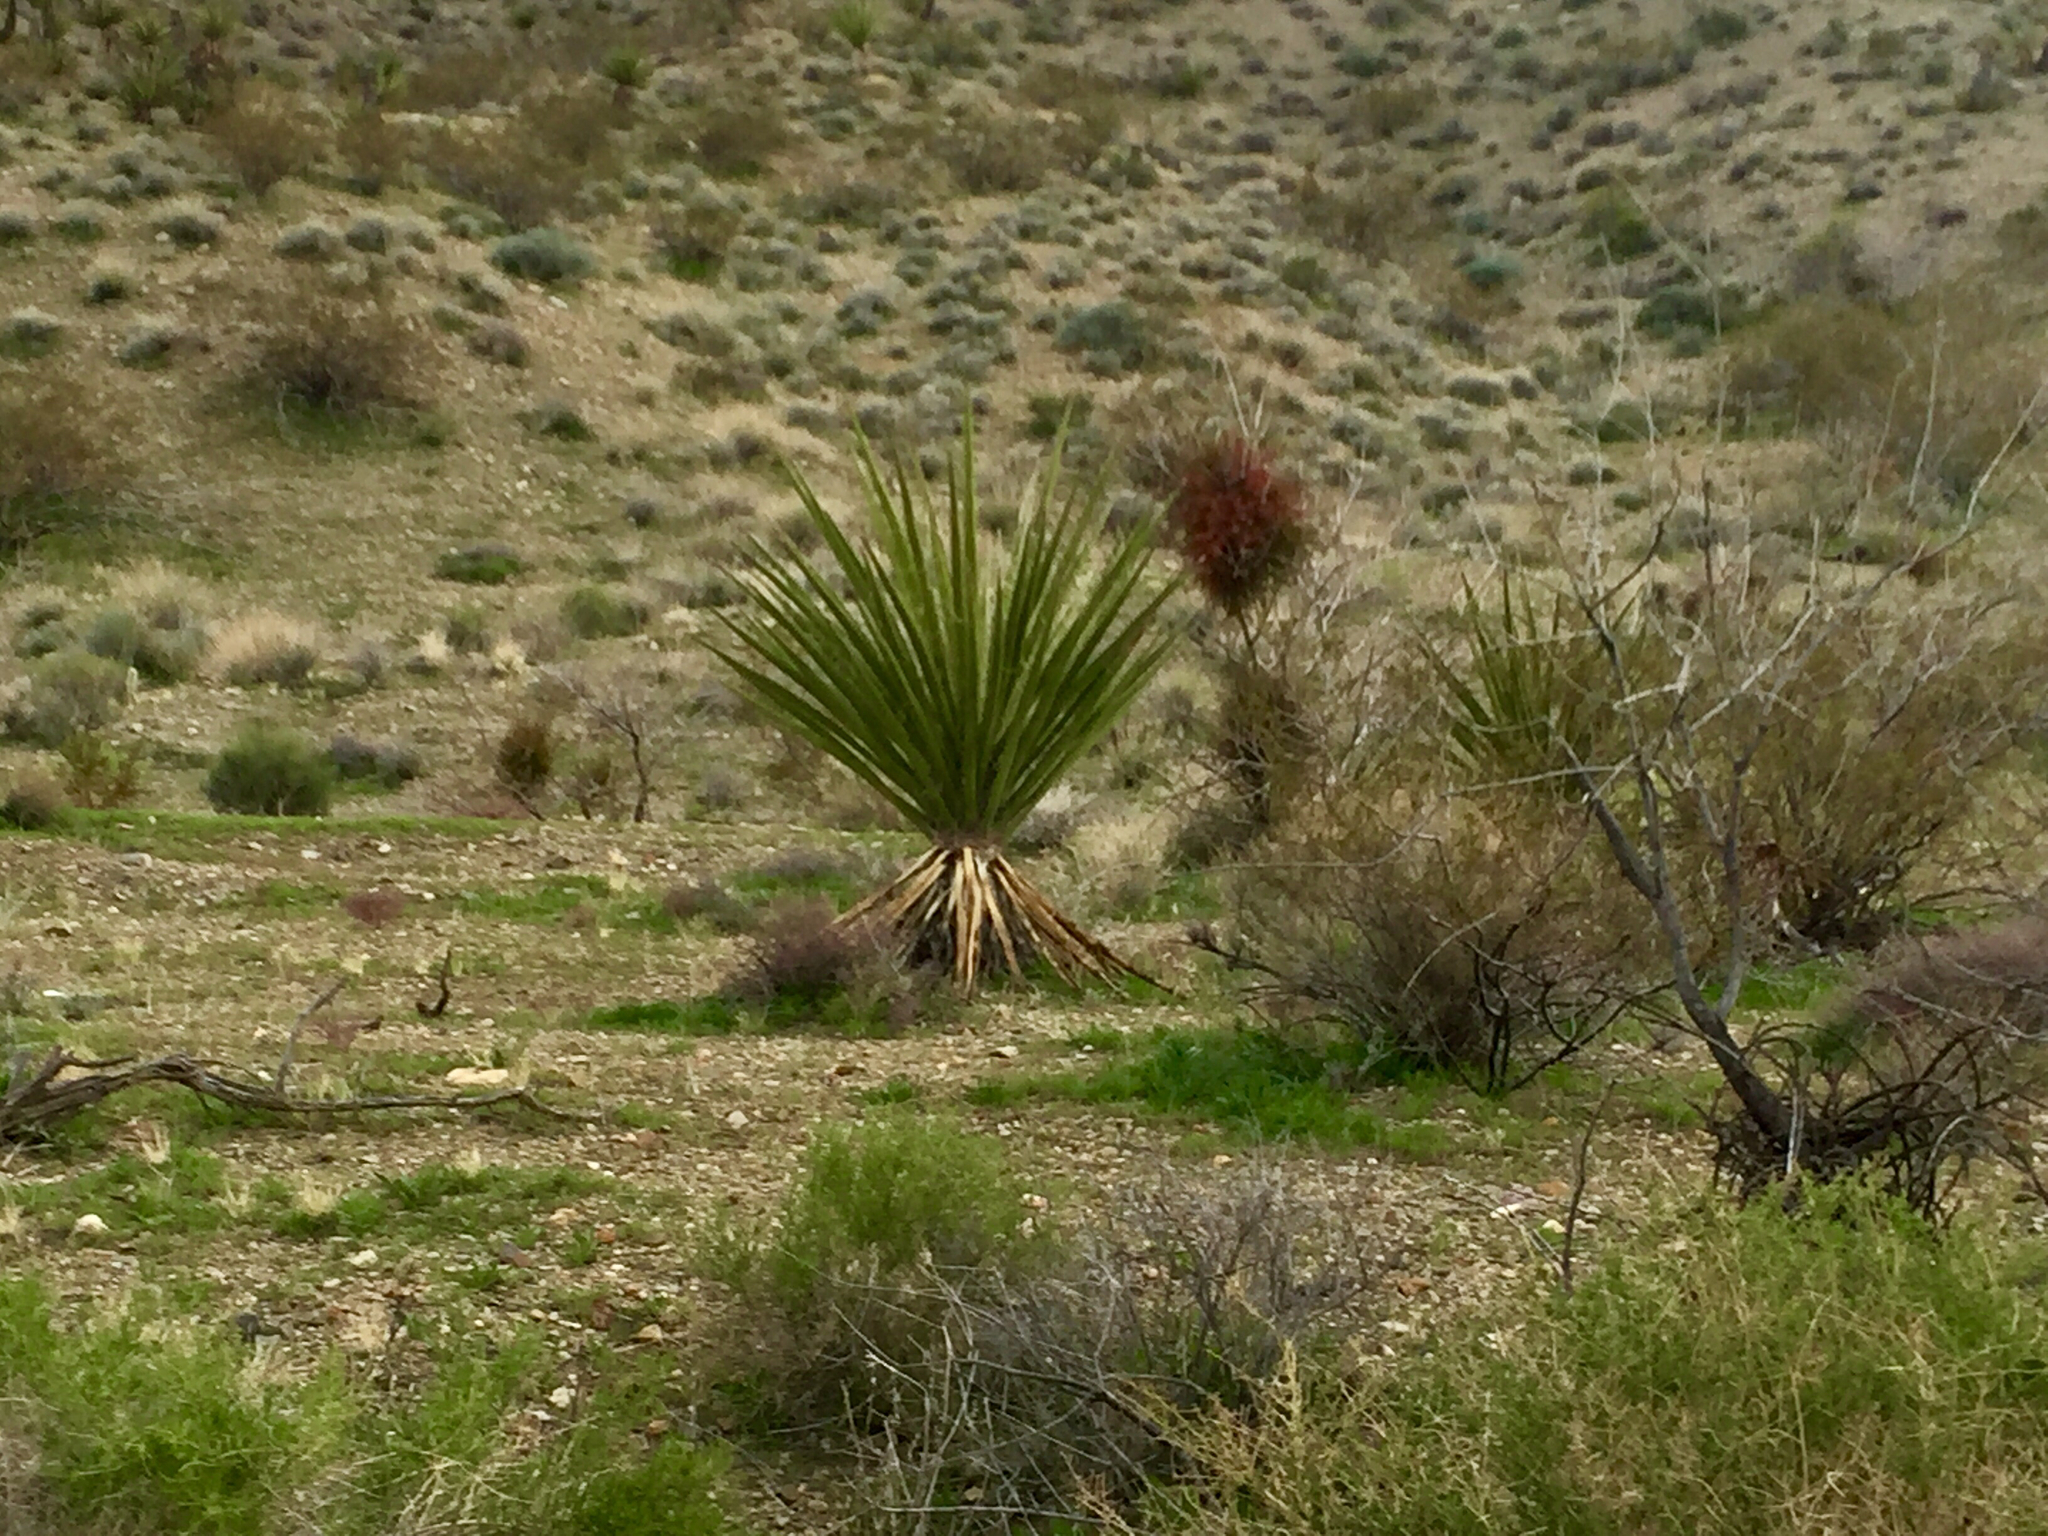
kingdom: Plantae
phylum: Tracheophyta
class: Liliopsida
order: Asparagales
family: Asparagaceae
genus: Yucca
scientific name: Yucca schidigera
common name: Mojave yucca
